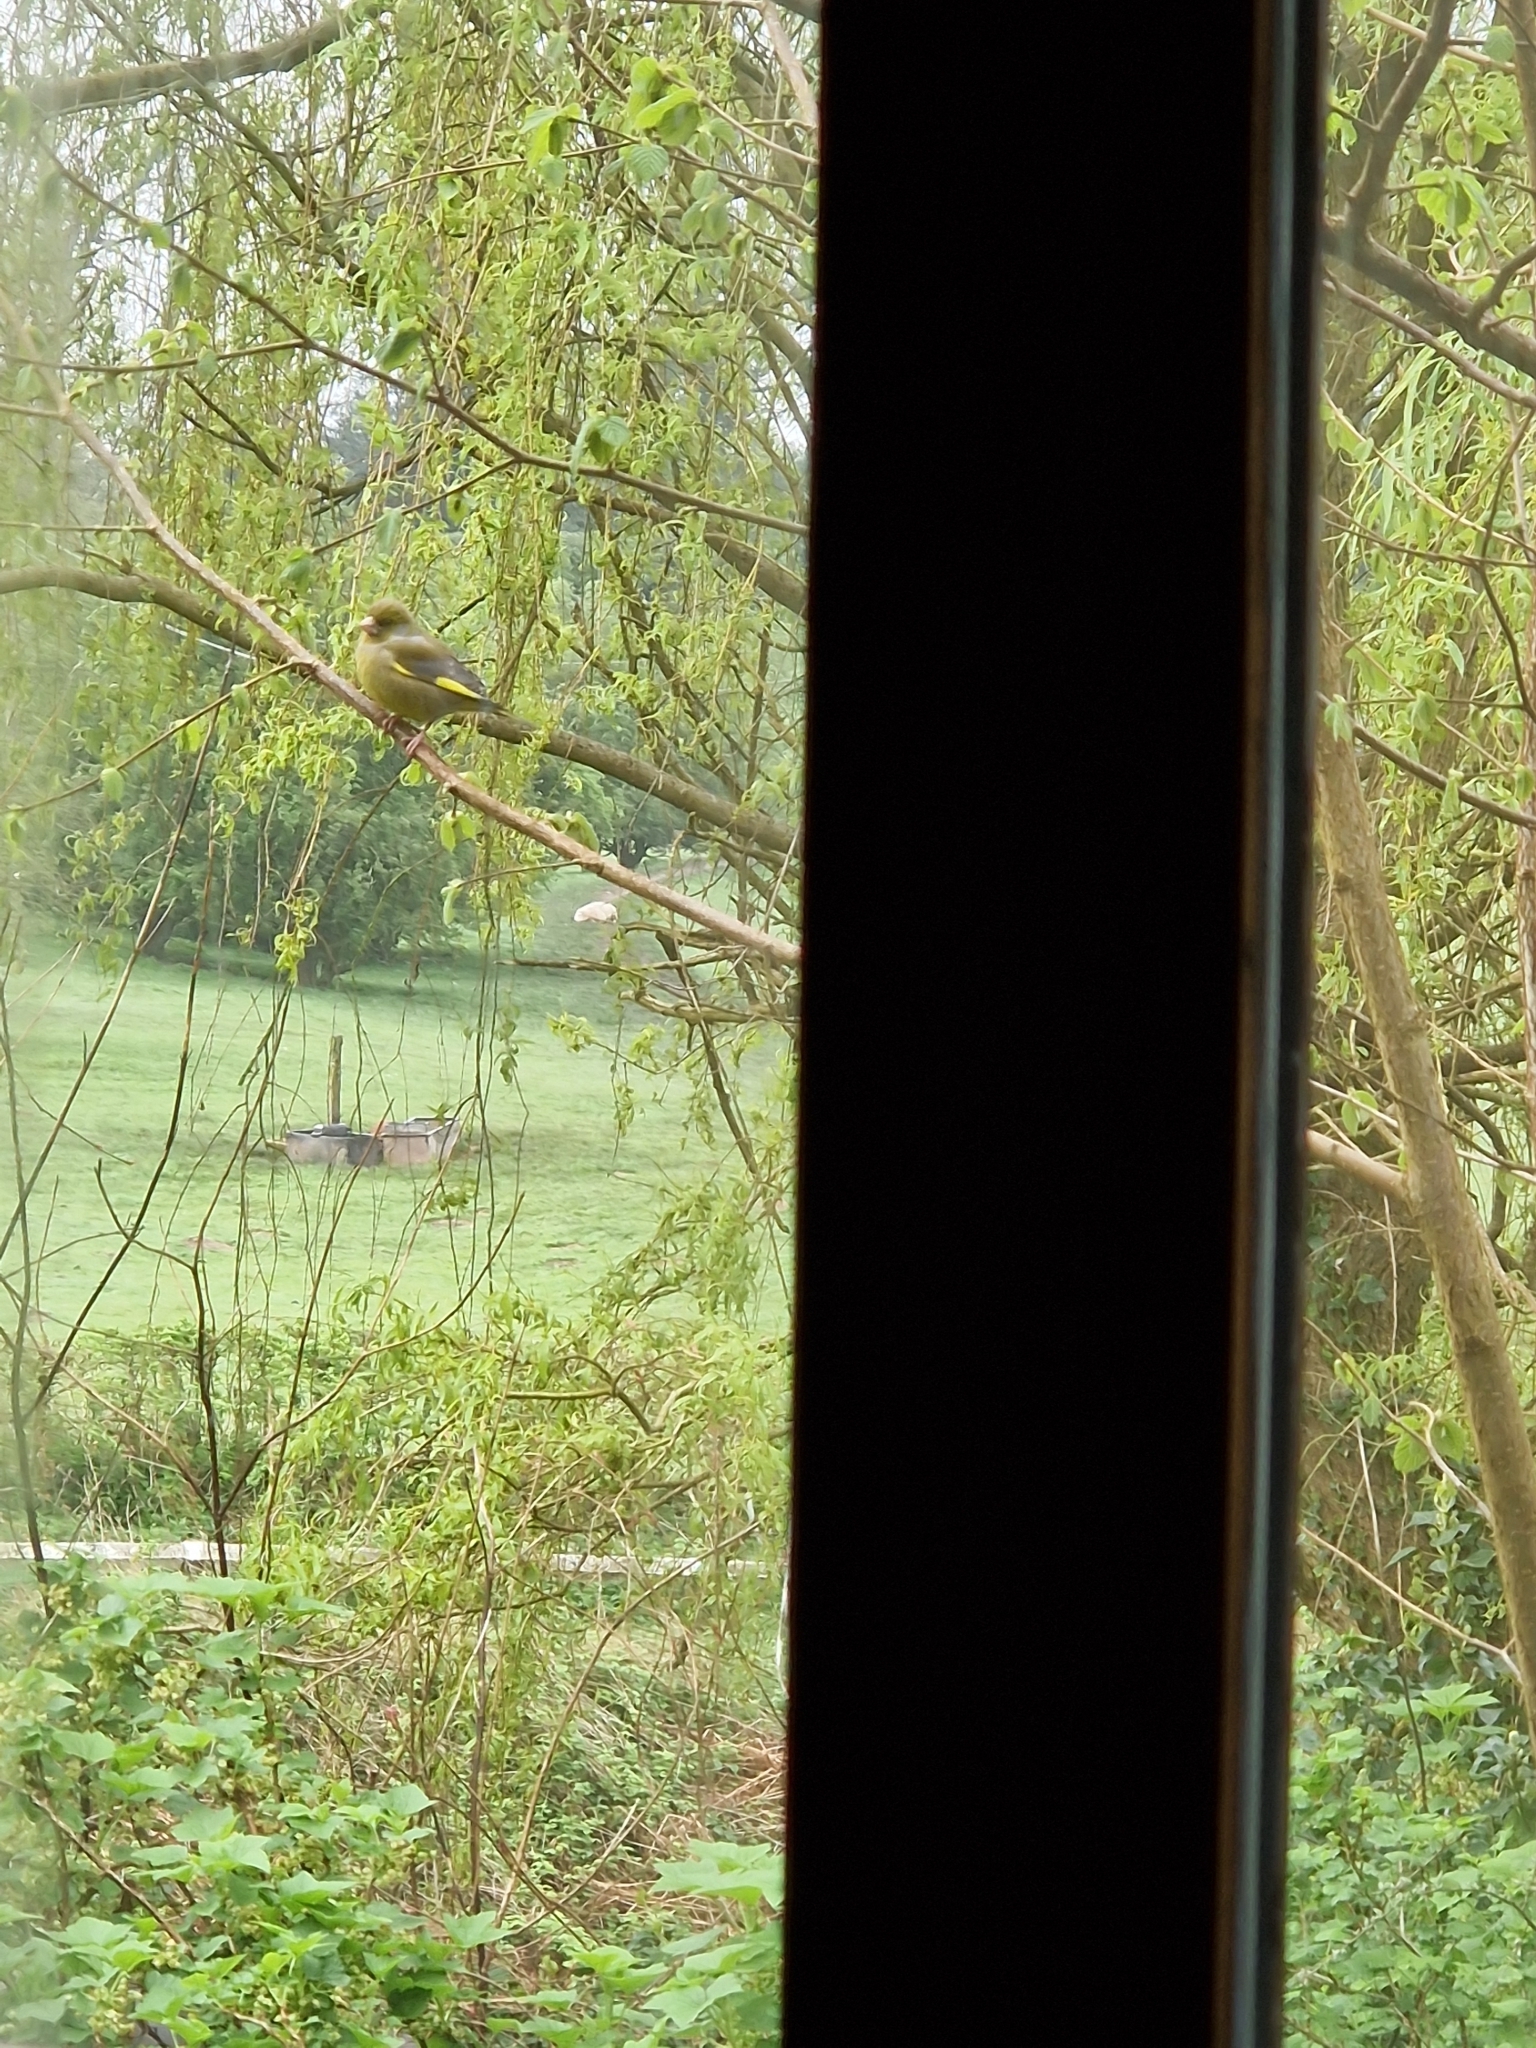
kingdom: Plantae
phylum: Tracheophyta
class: Liliopsida
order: Poales
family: Poaceae
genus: Chloris
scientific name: Chloris chloris
